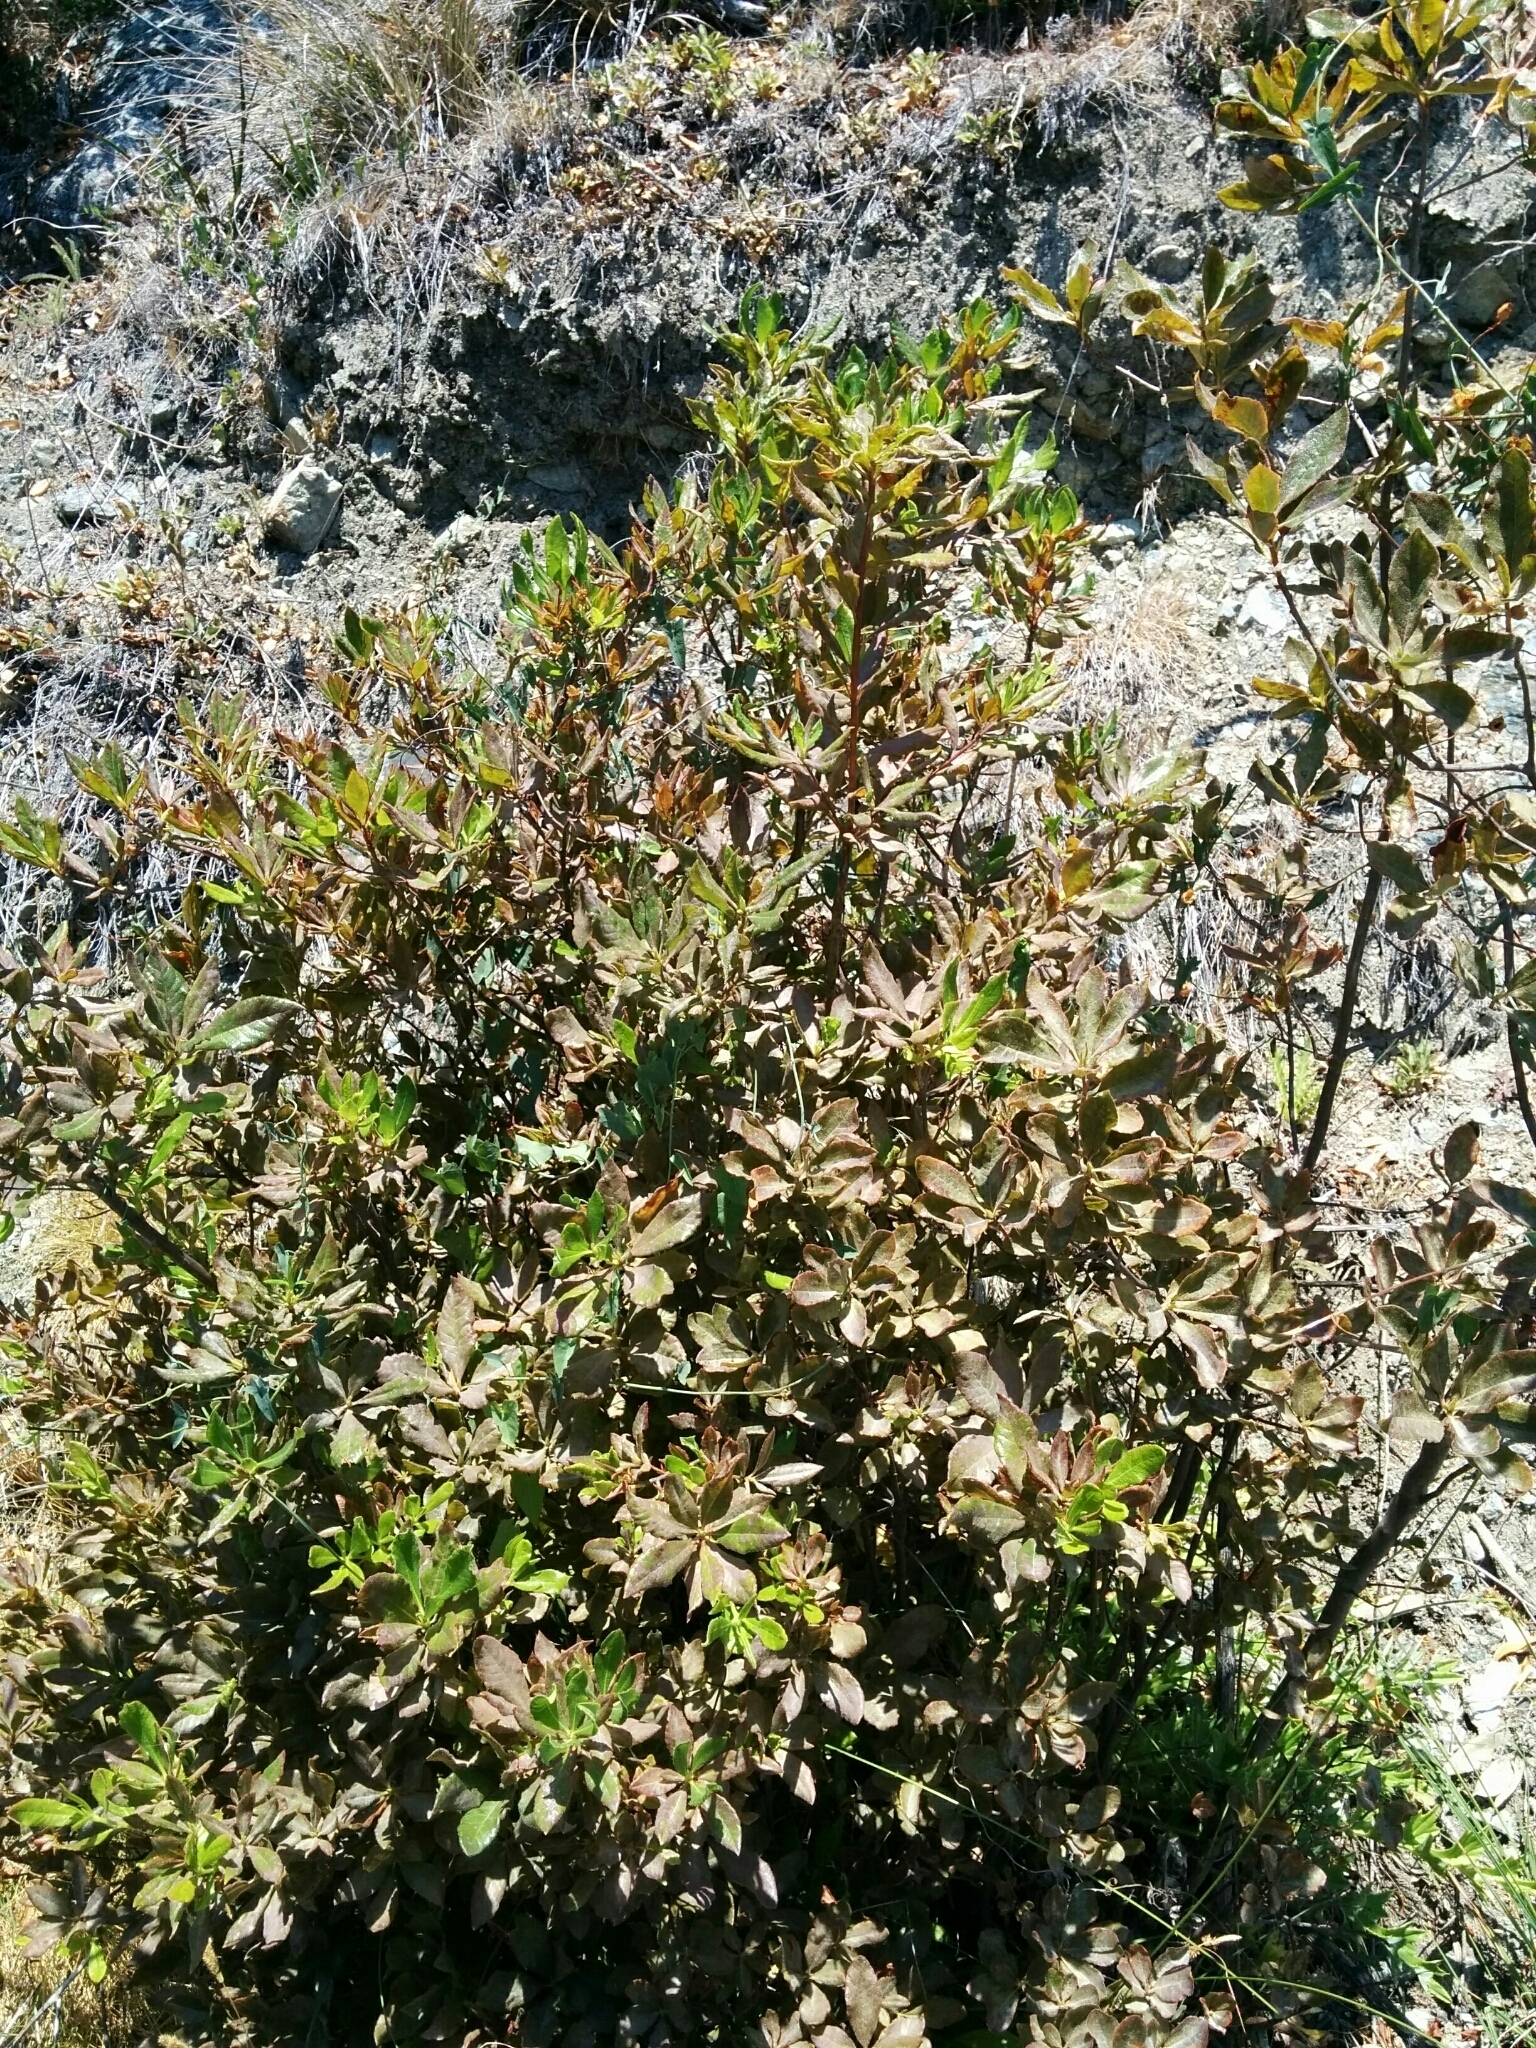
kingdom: Plantae
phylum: Tracheophyta
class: Magnoliopsida
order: Ericales
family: Ericaceae
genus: Rhododendron
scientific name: Rhododendron occidentale
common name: Western azalea
